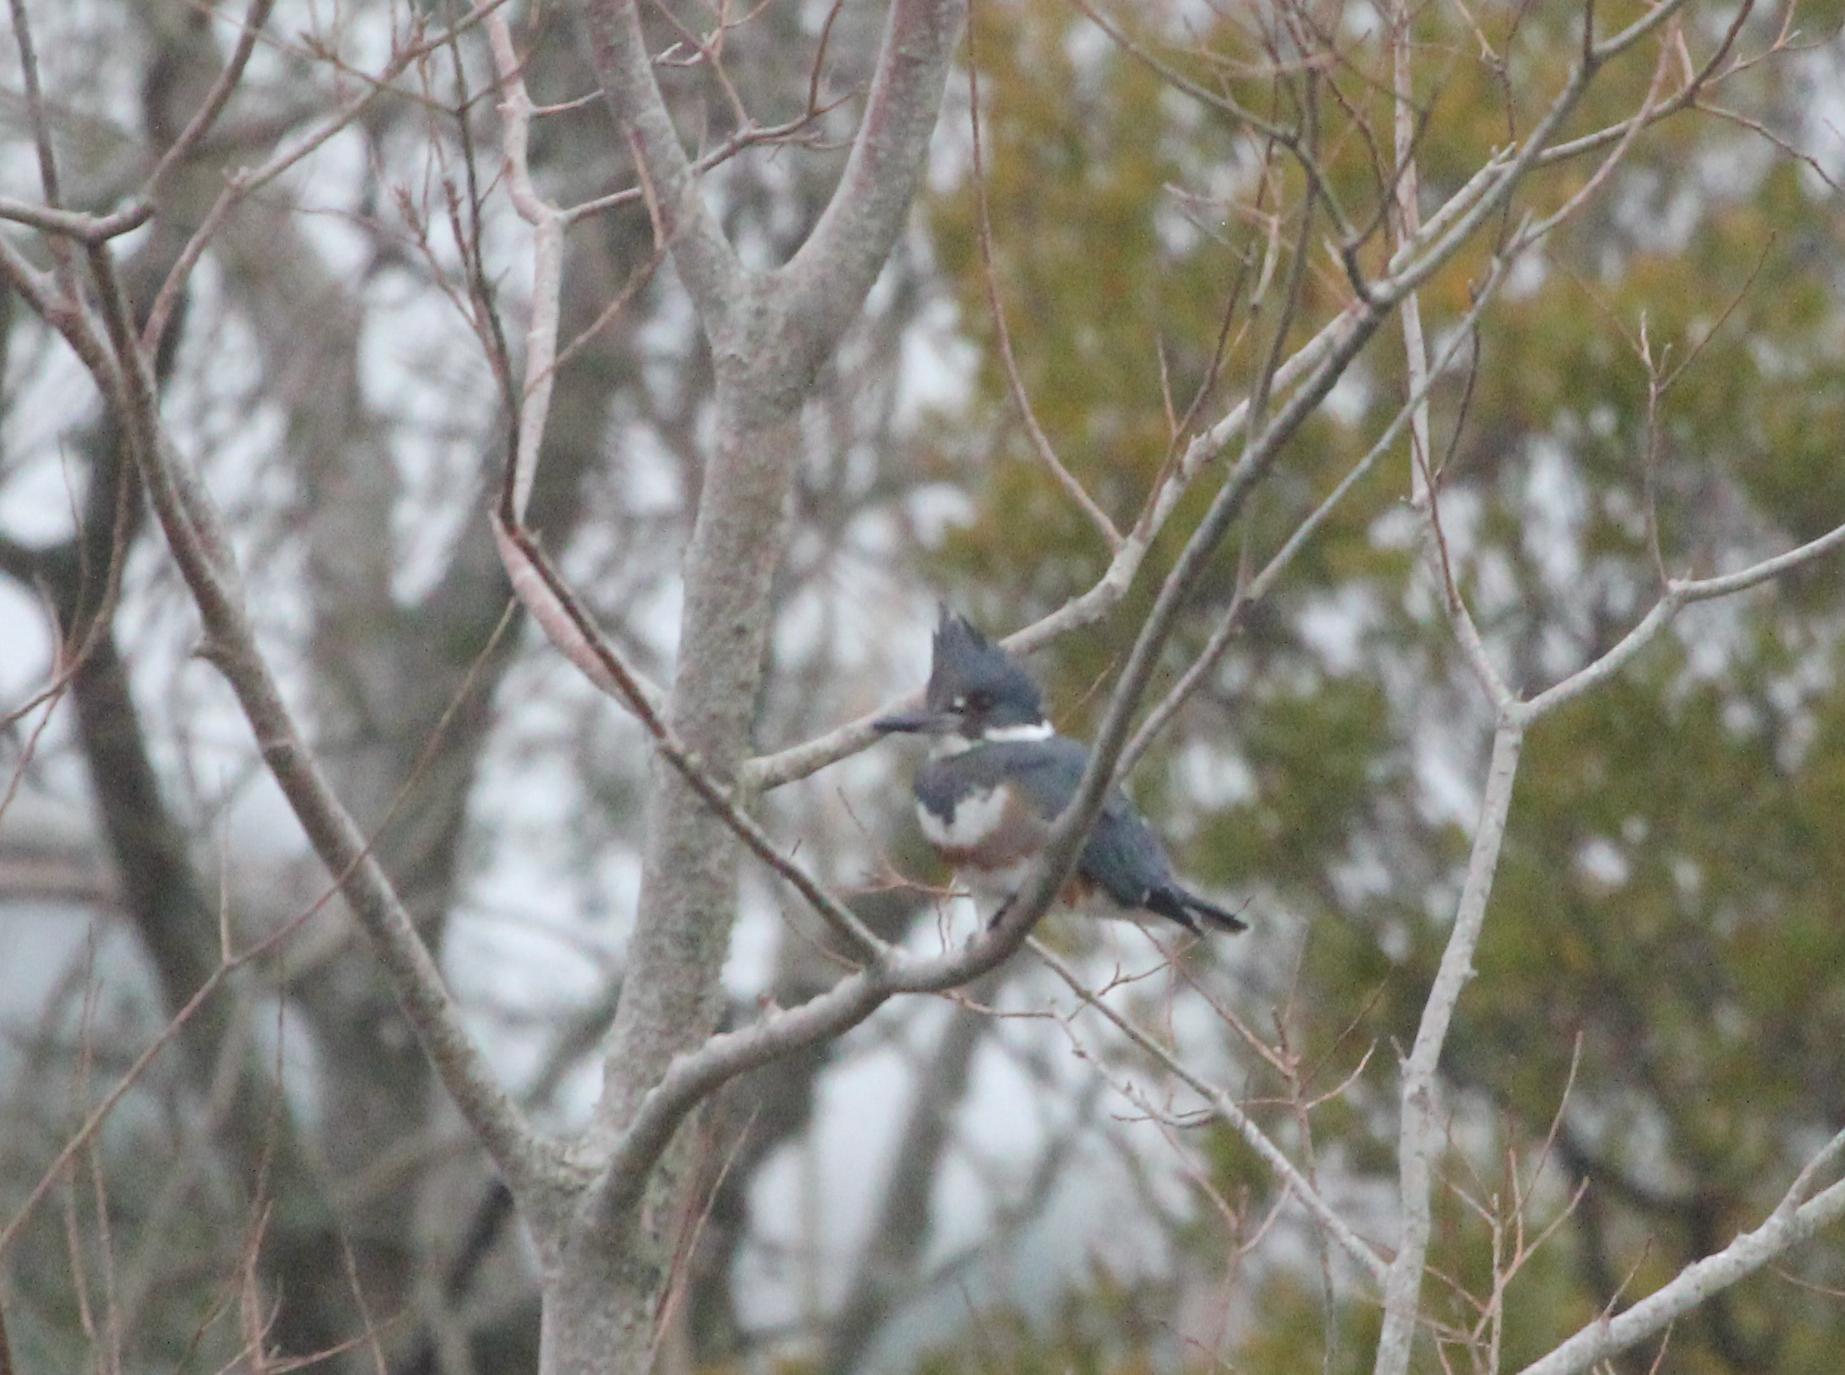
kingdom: Animalia
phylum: Chordata
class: Aves
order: Coraciiformes
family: Alcedinidae
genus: Megaceryle
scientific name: Megaceryle alcyon
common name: Belted kingfisher
